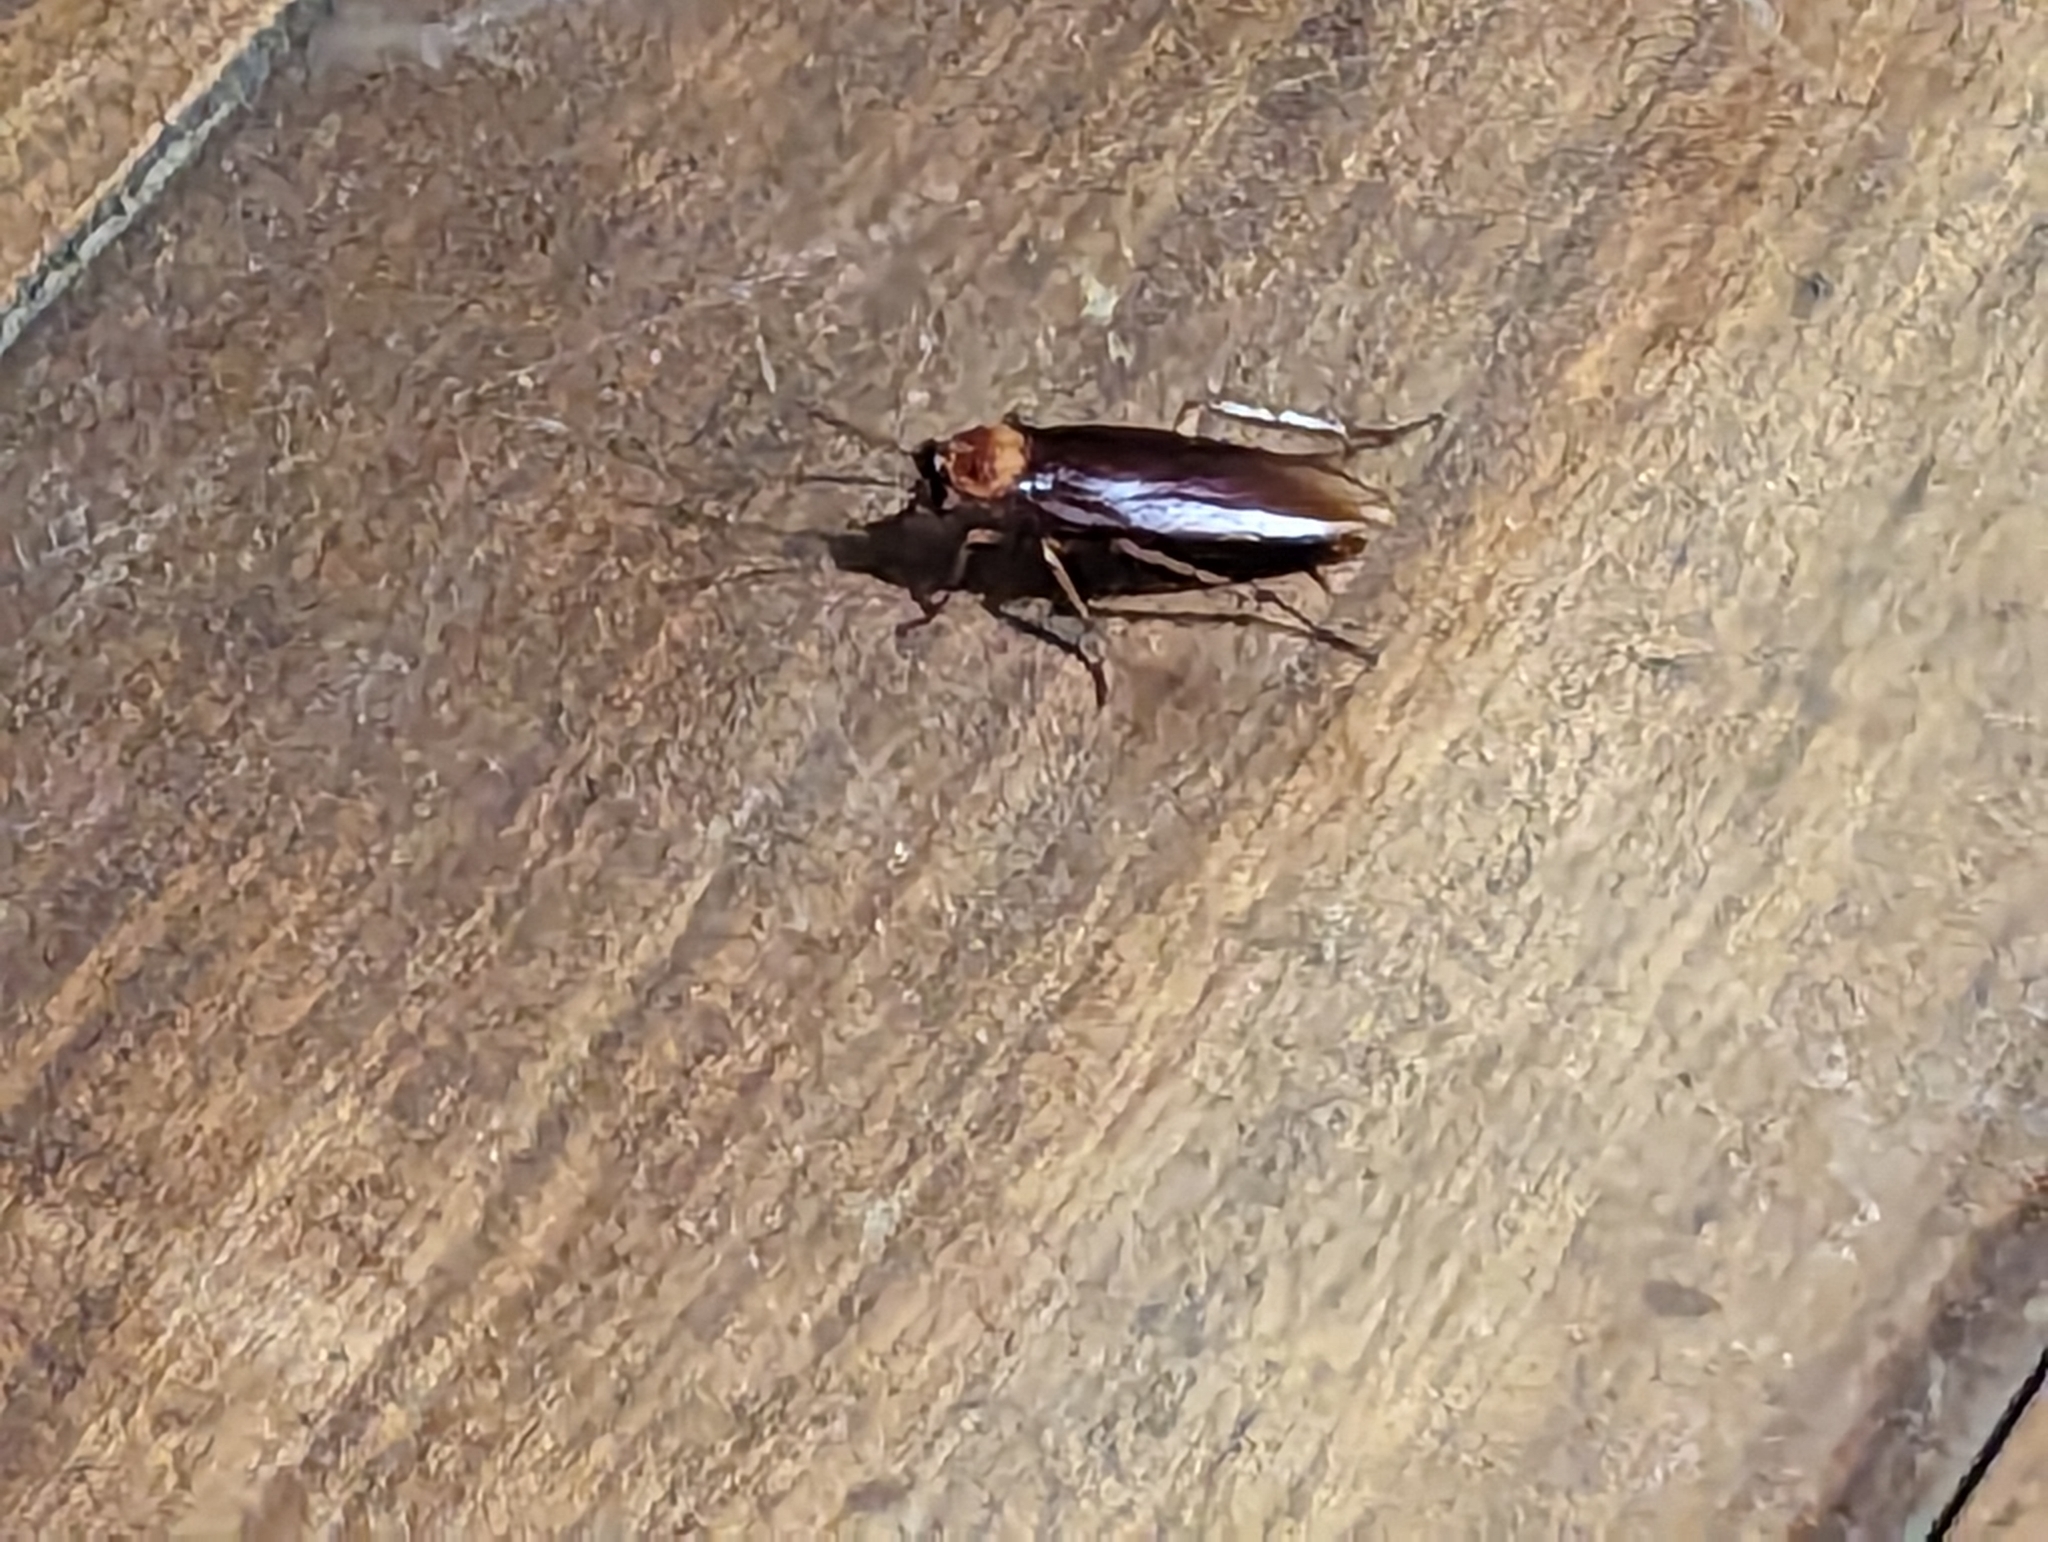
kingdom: Animalia
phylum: Arthropoda
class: Insecta
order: Blattodea
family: Blattidae
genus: Periplaneta
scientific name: Periplaneta americana
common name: American cockroach
